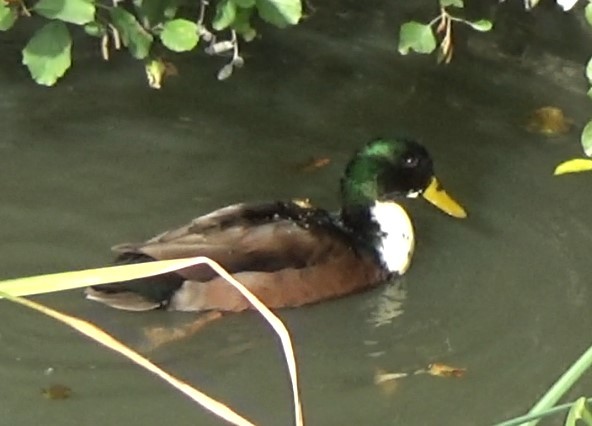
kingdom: Animalia
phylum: Chordata
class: Aves
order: Anseriformes
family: Anatidae
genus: Anas
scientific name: Anas platyrhynchos
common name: Mallard
